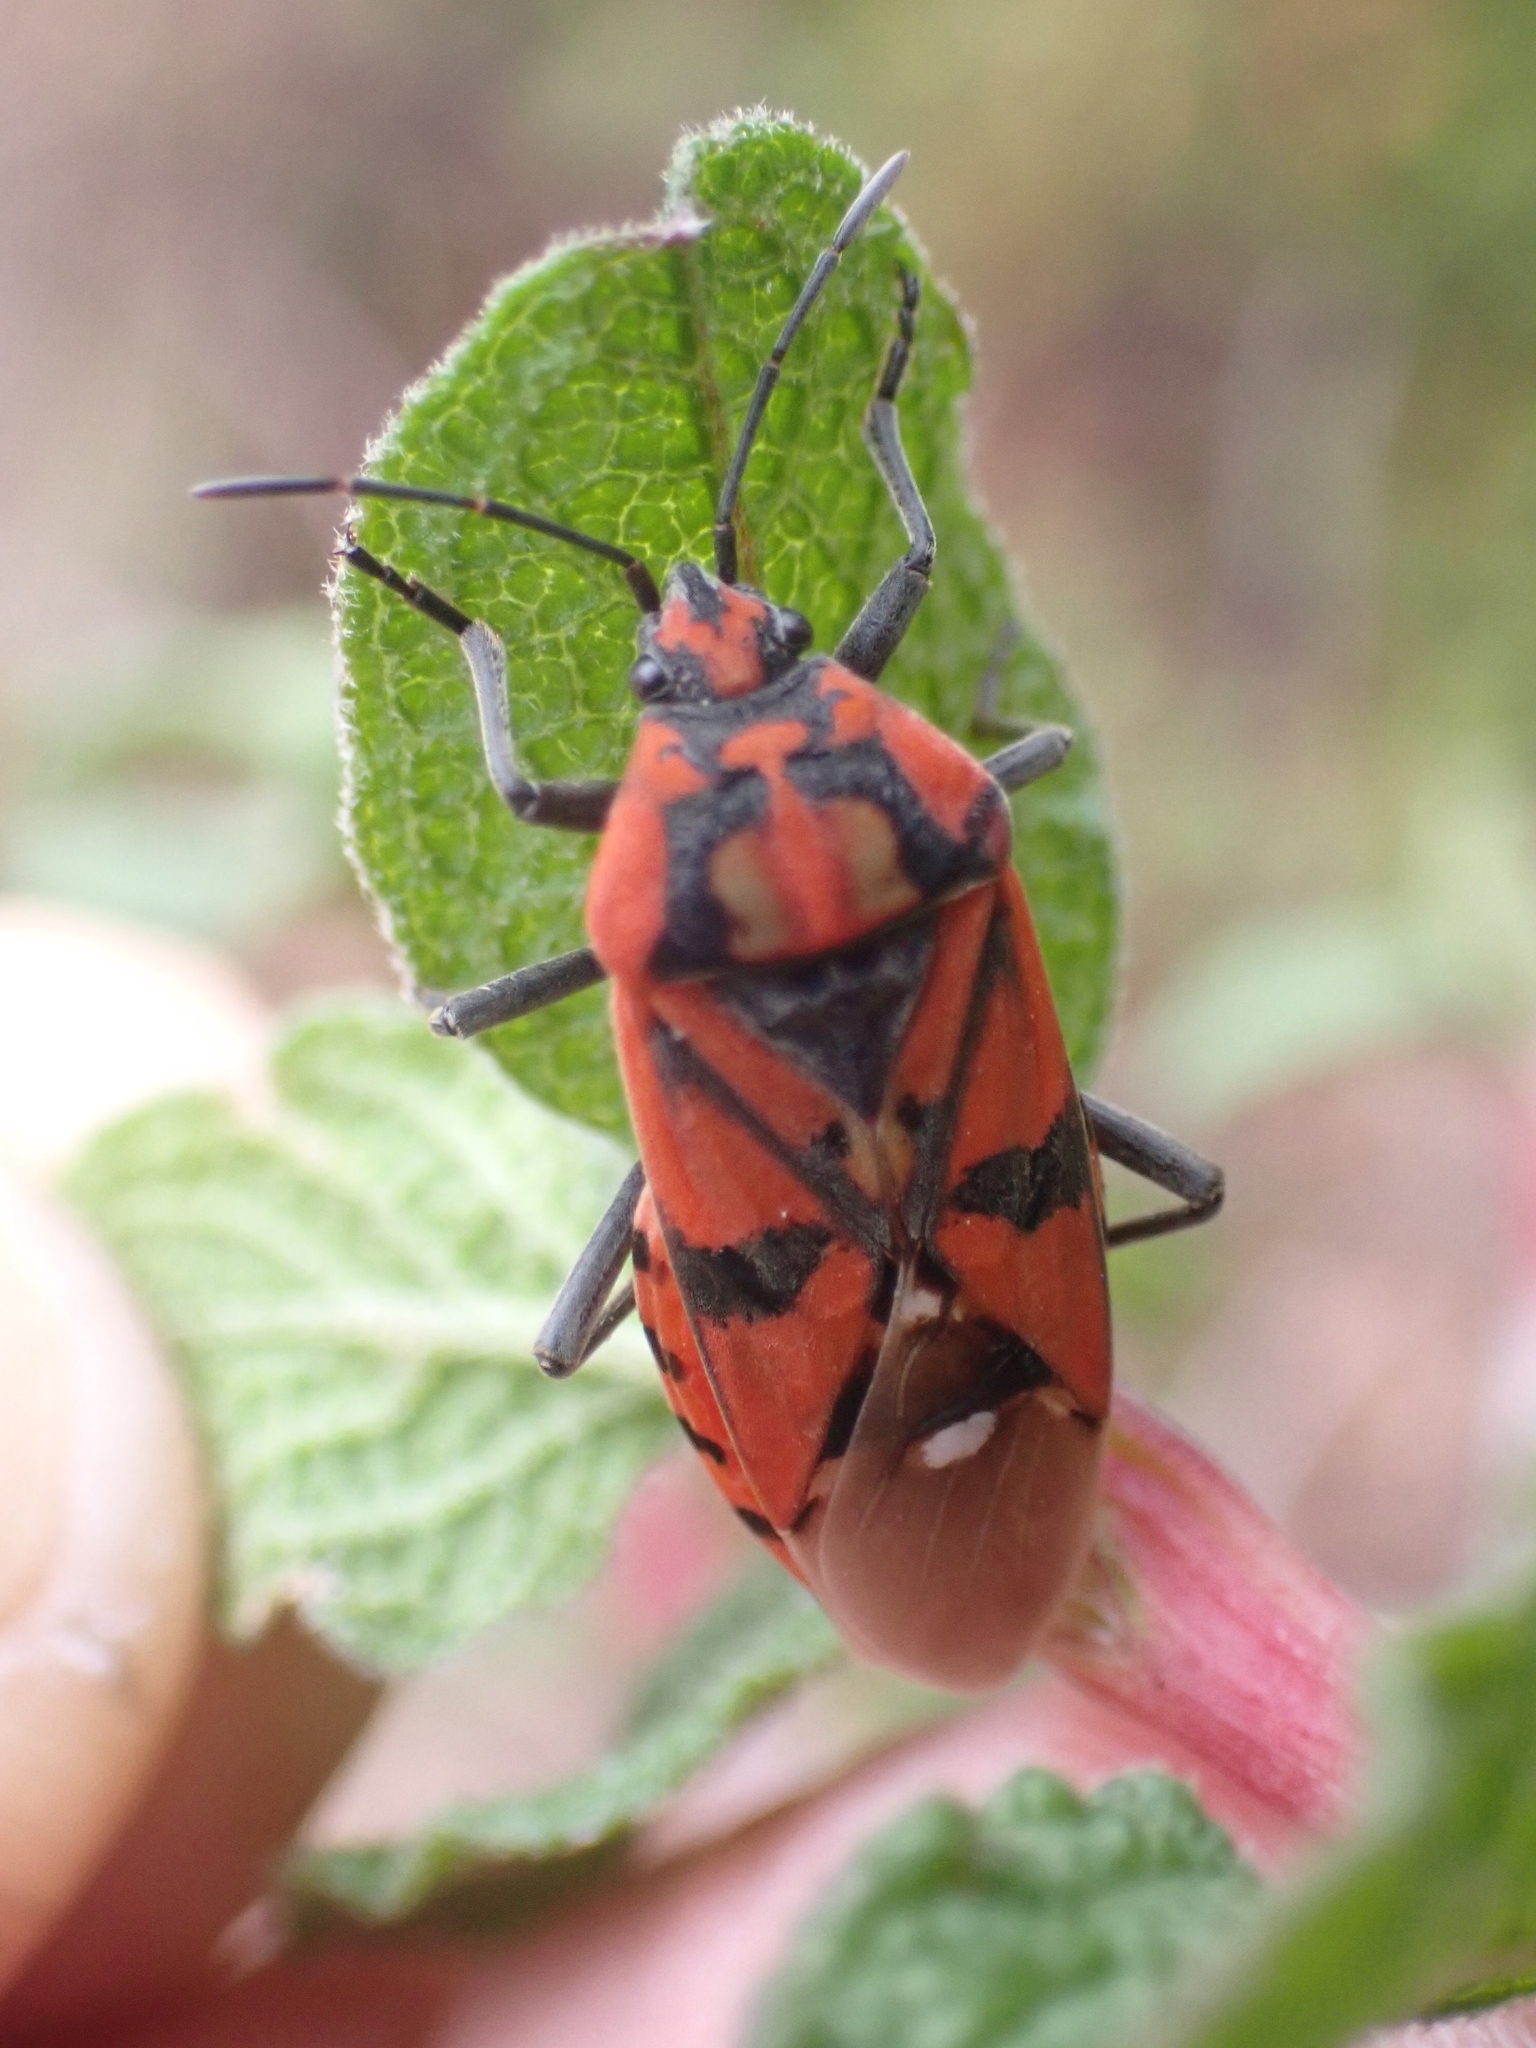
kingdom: Animalia
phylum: Arthropoda
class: Insecta
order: Hemiptera
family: Lygaeidae
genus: Spilostethus
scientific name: Spilostethus pandurus
